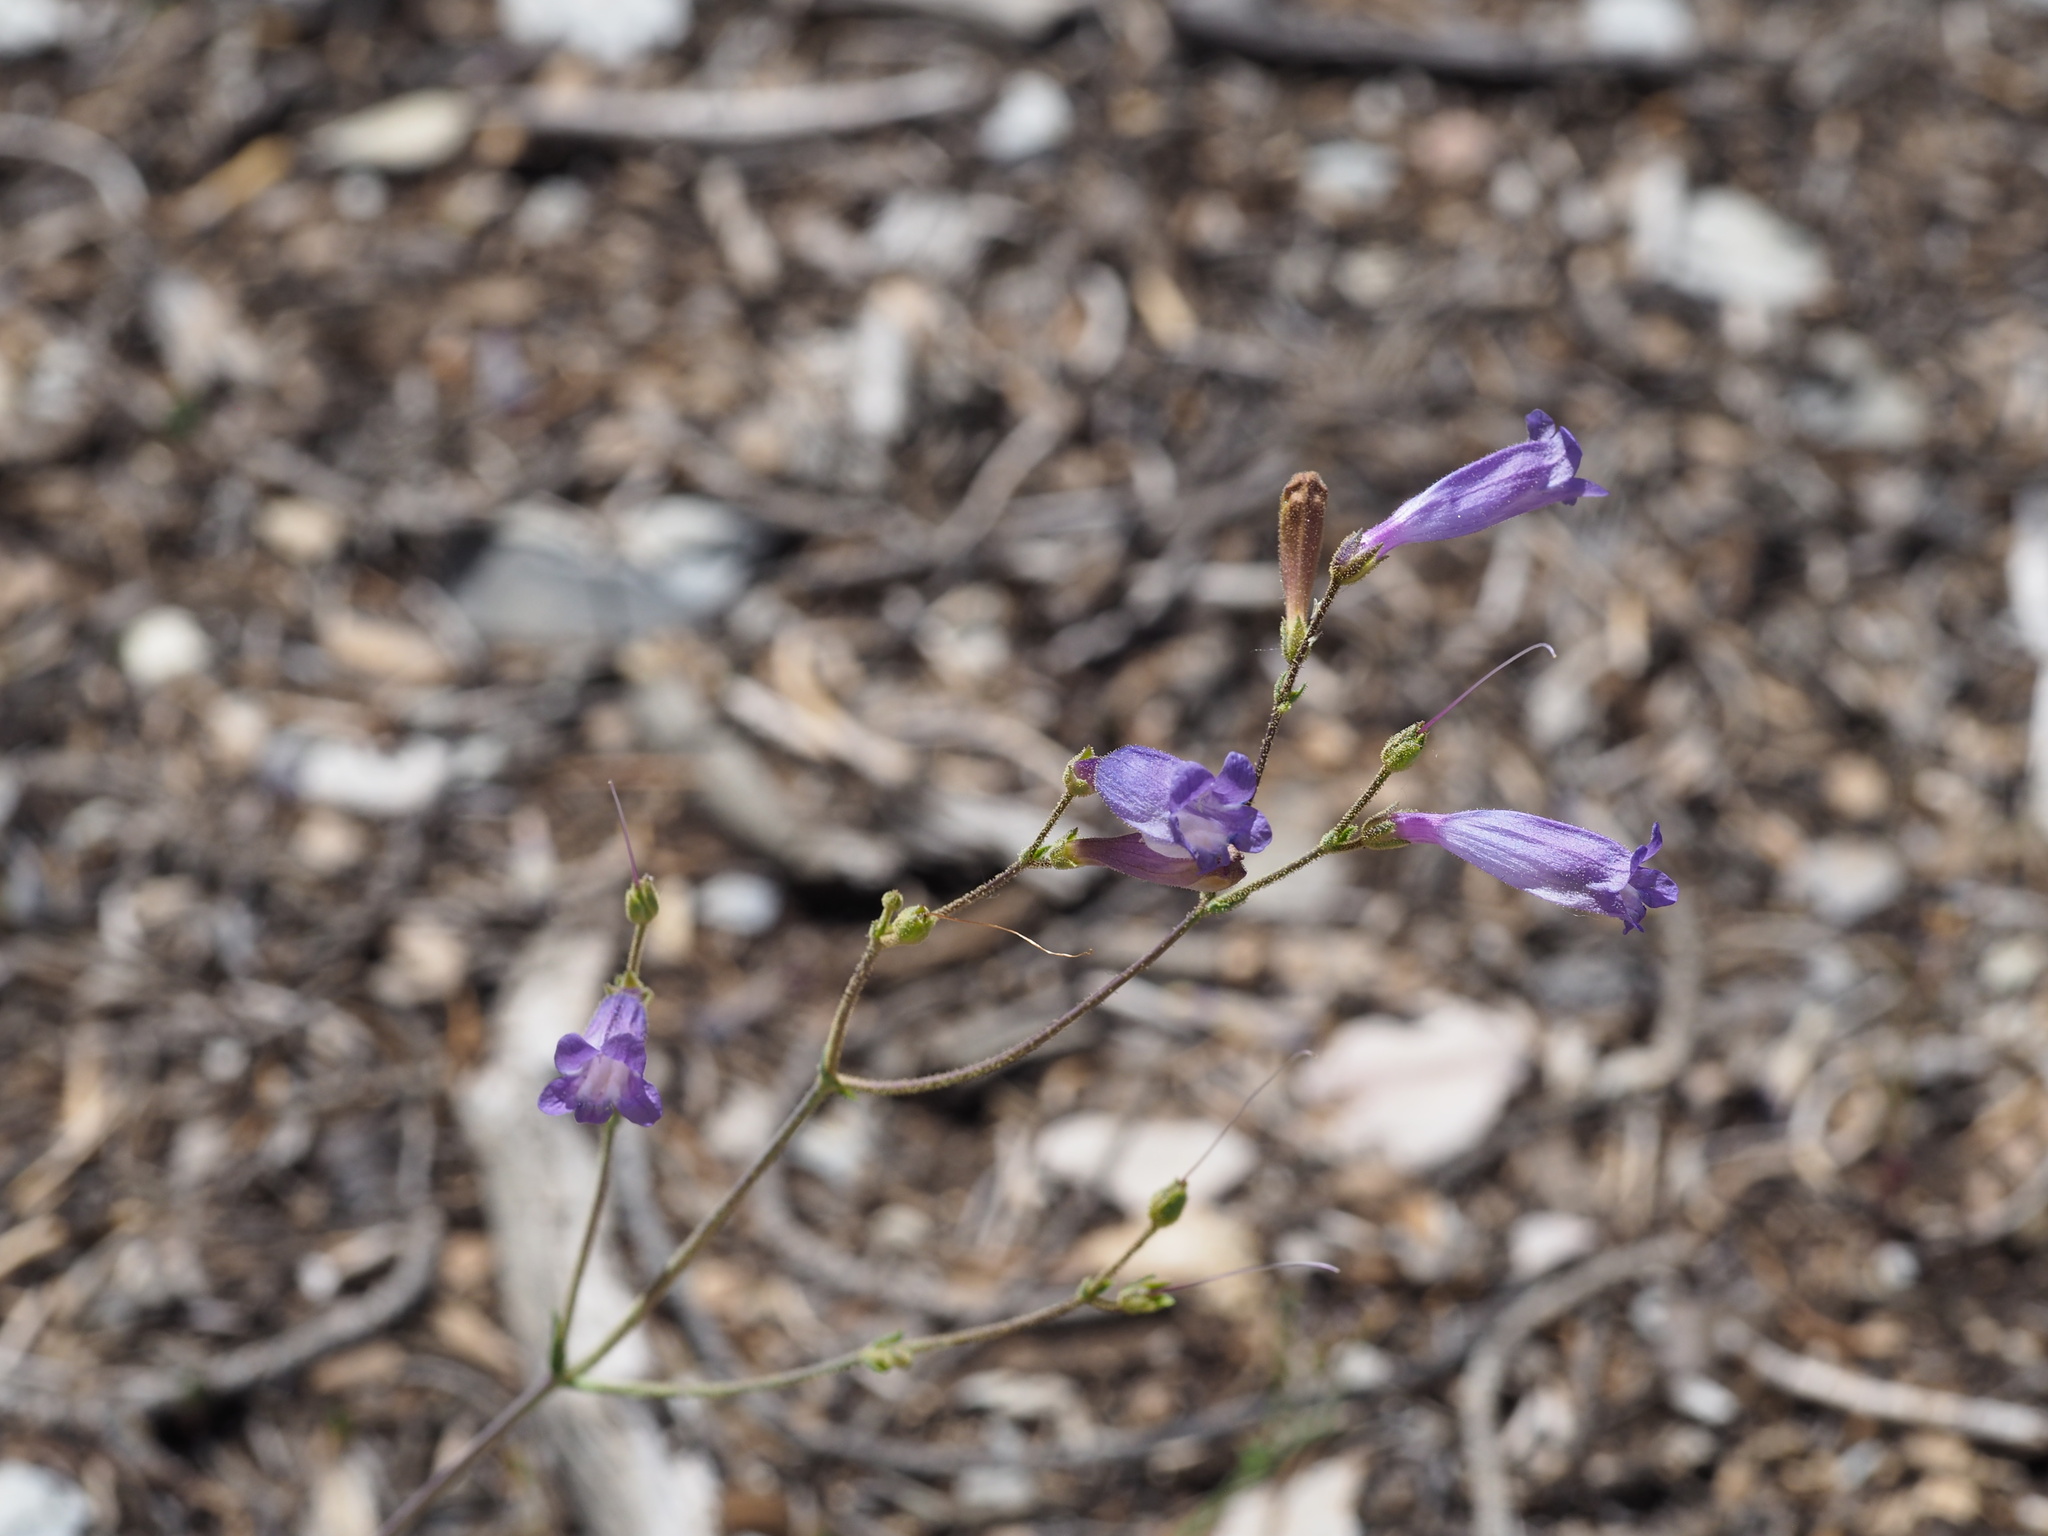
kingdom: Plantae
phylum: Tracheophyta
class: Magnoliopsida
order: Lamiales
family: Plantaginaceae
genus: Penstemon
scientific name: Penstemon scapoides
